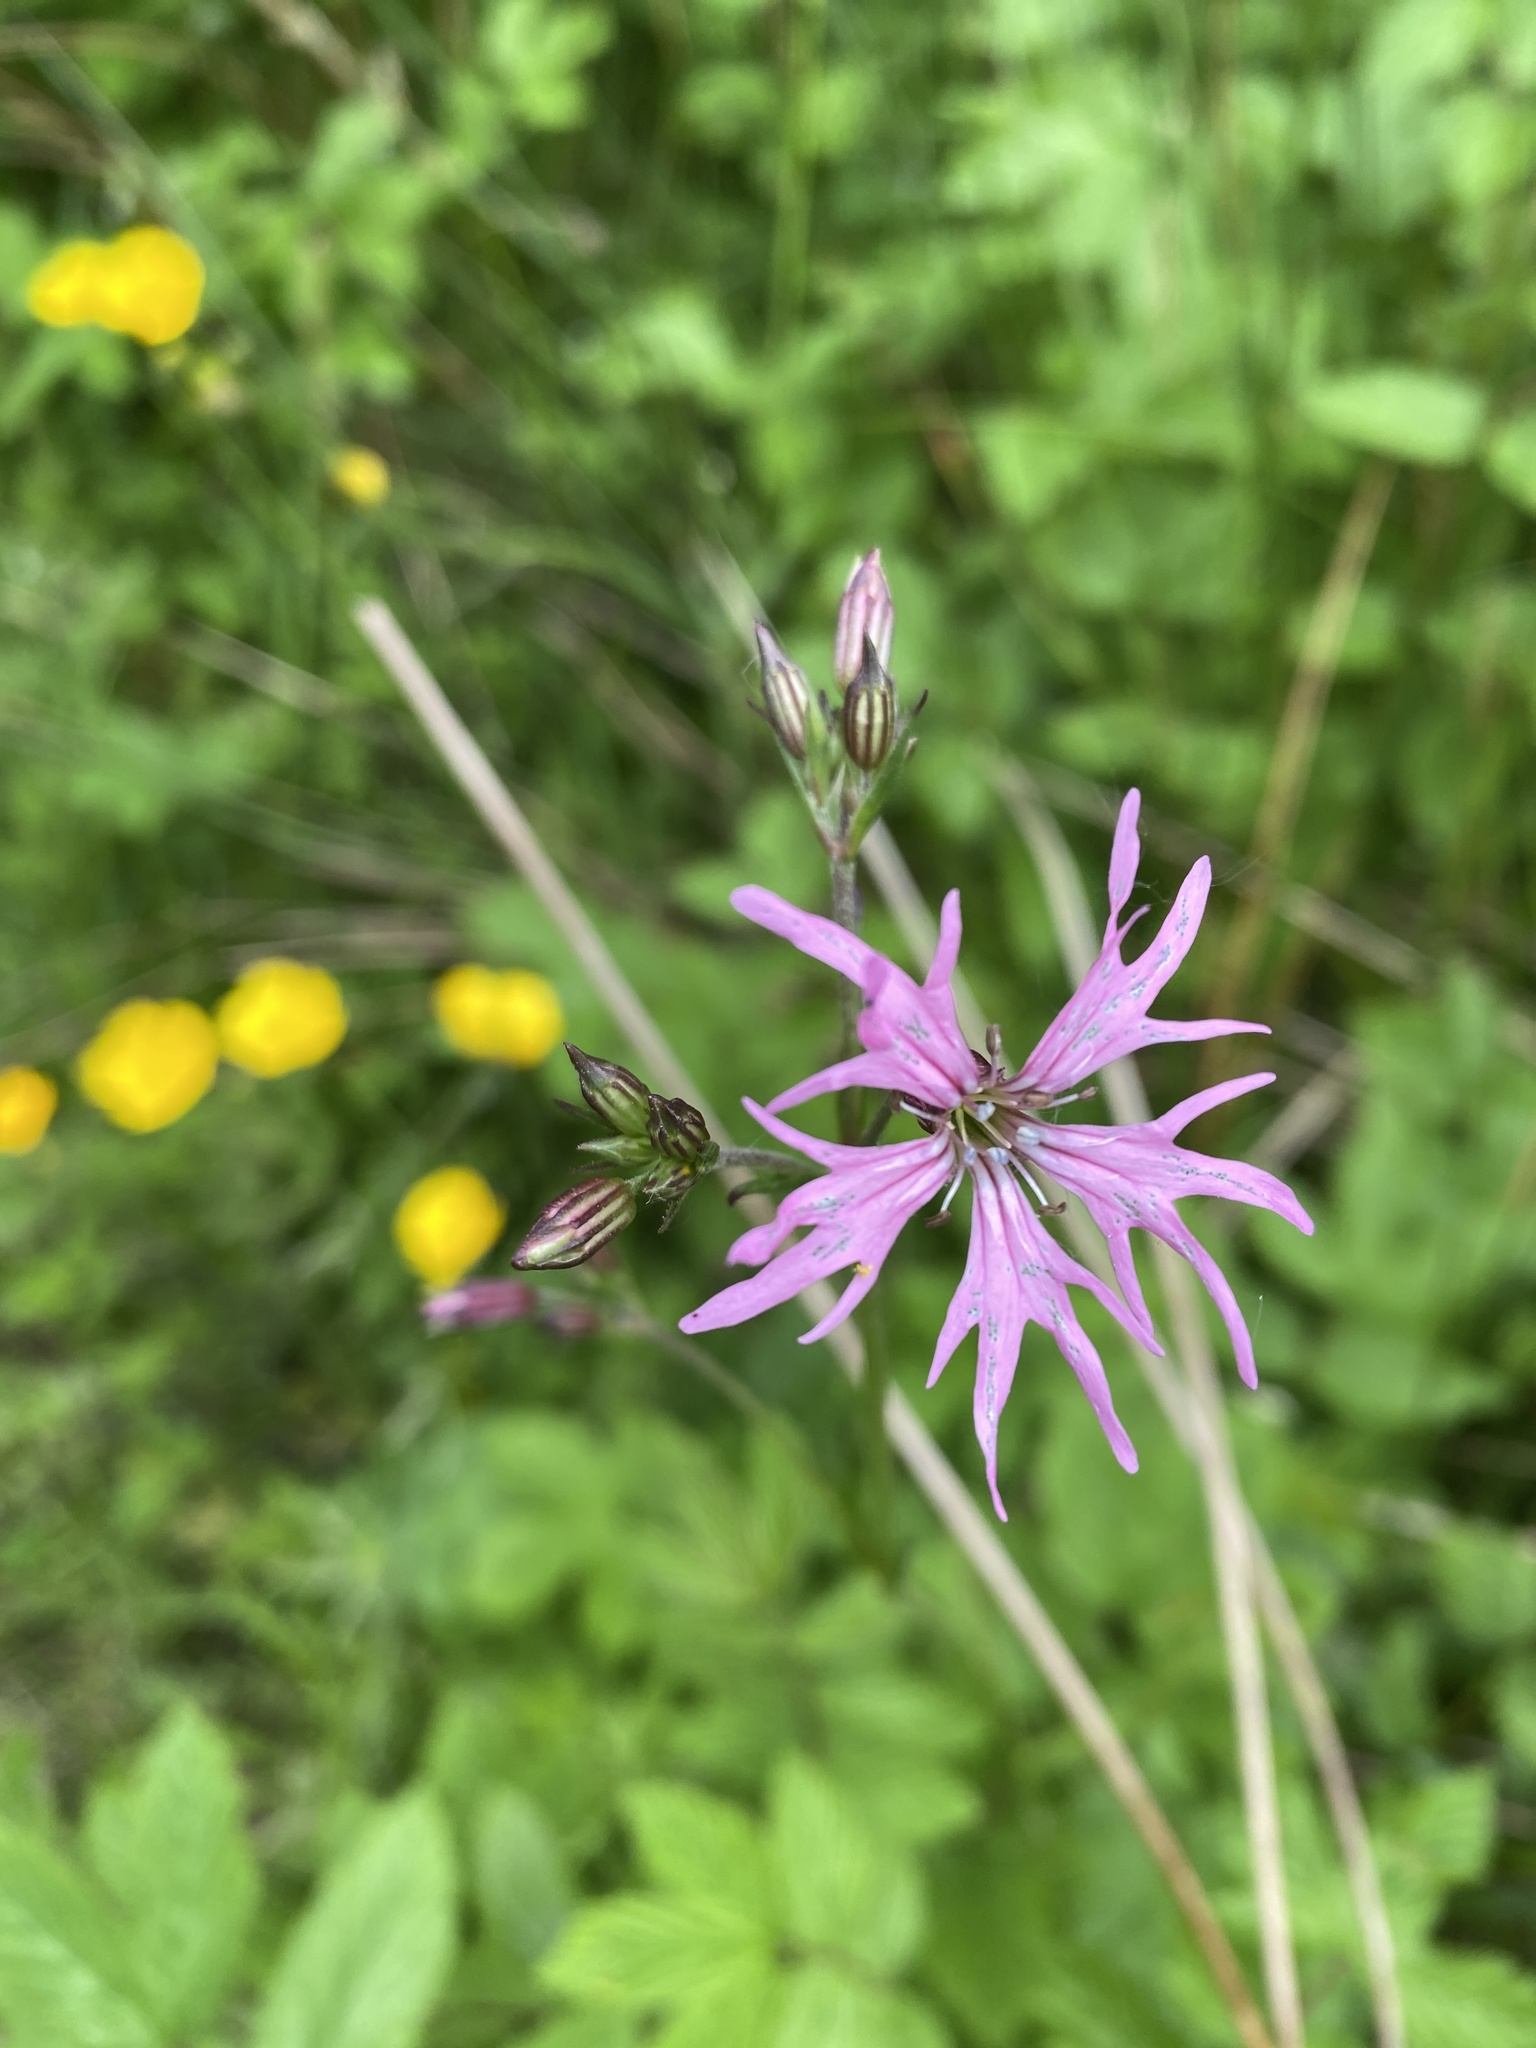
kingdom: Plantae
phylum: Tracheophyta
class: Magnoliopsida
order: Caryophyllales
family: Caryophyllaceae
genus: Silene
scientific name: Silene flos-cuculi
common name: Ragged-robin
